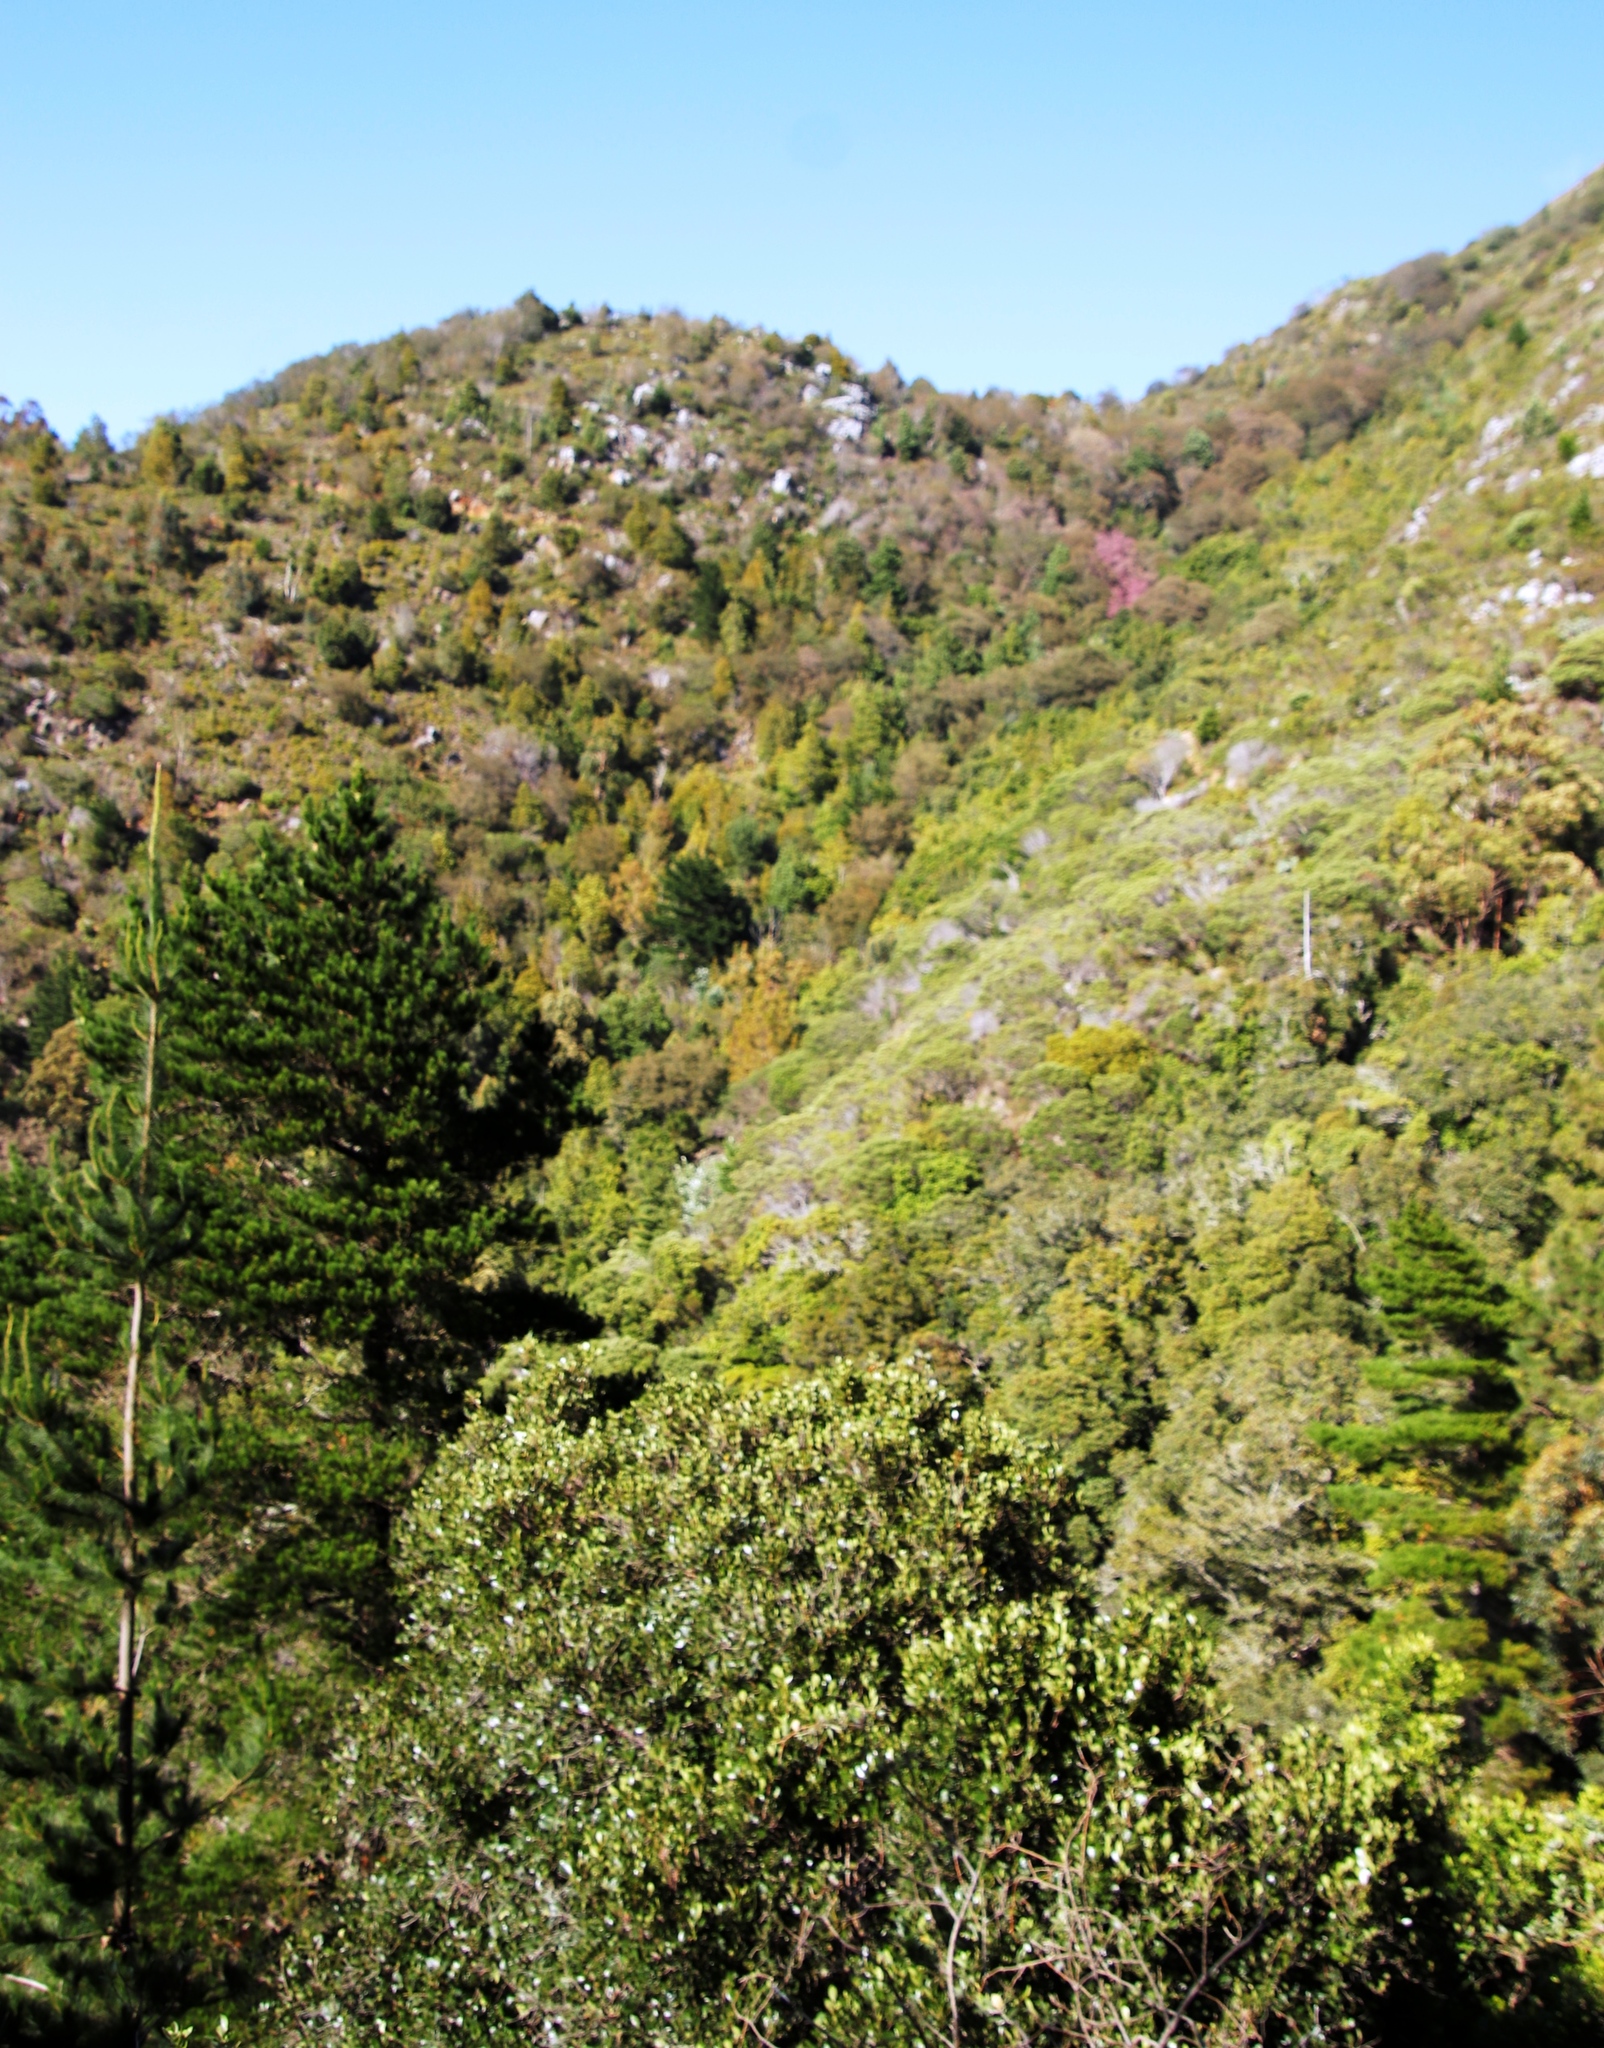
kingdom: Plantae
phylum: Tracheophyta
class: Pinopsida
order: Pinales
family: Pinaceae
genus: Pinus
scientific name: Pinus radiata
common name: Monterey pine
